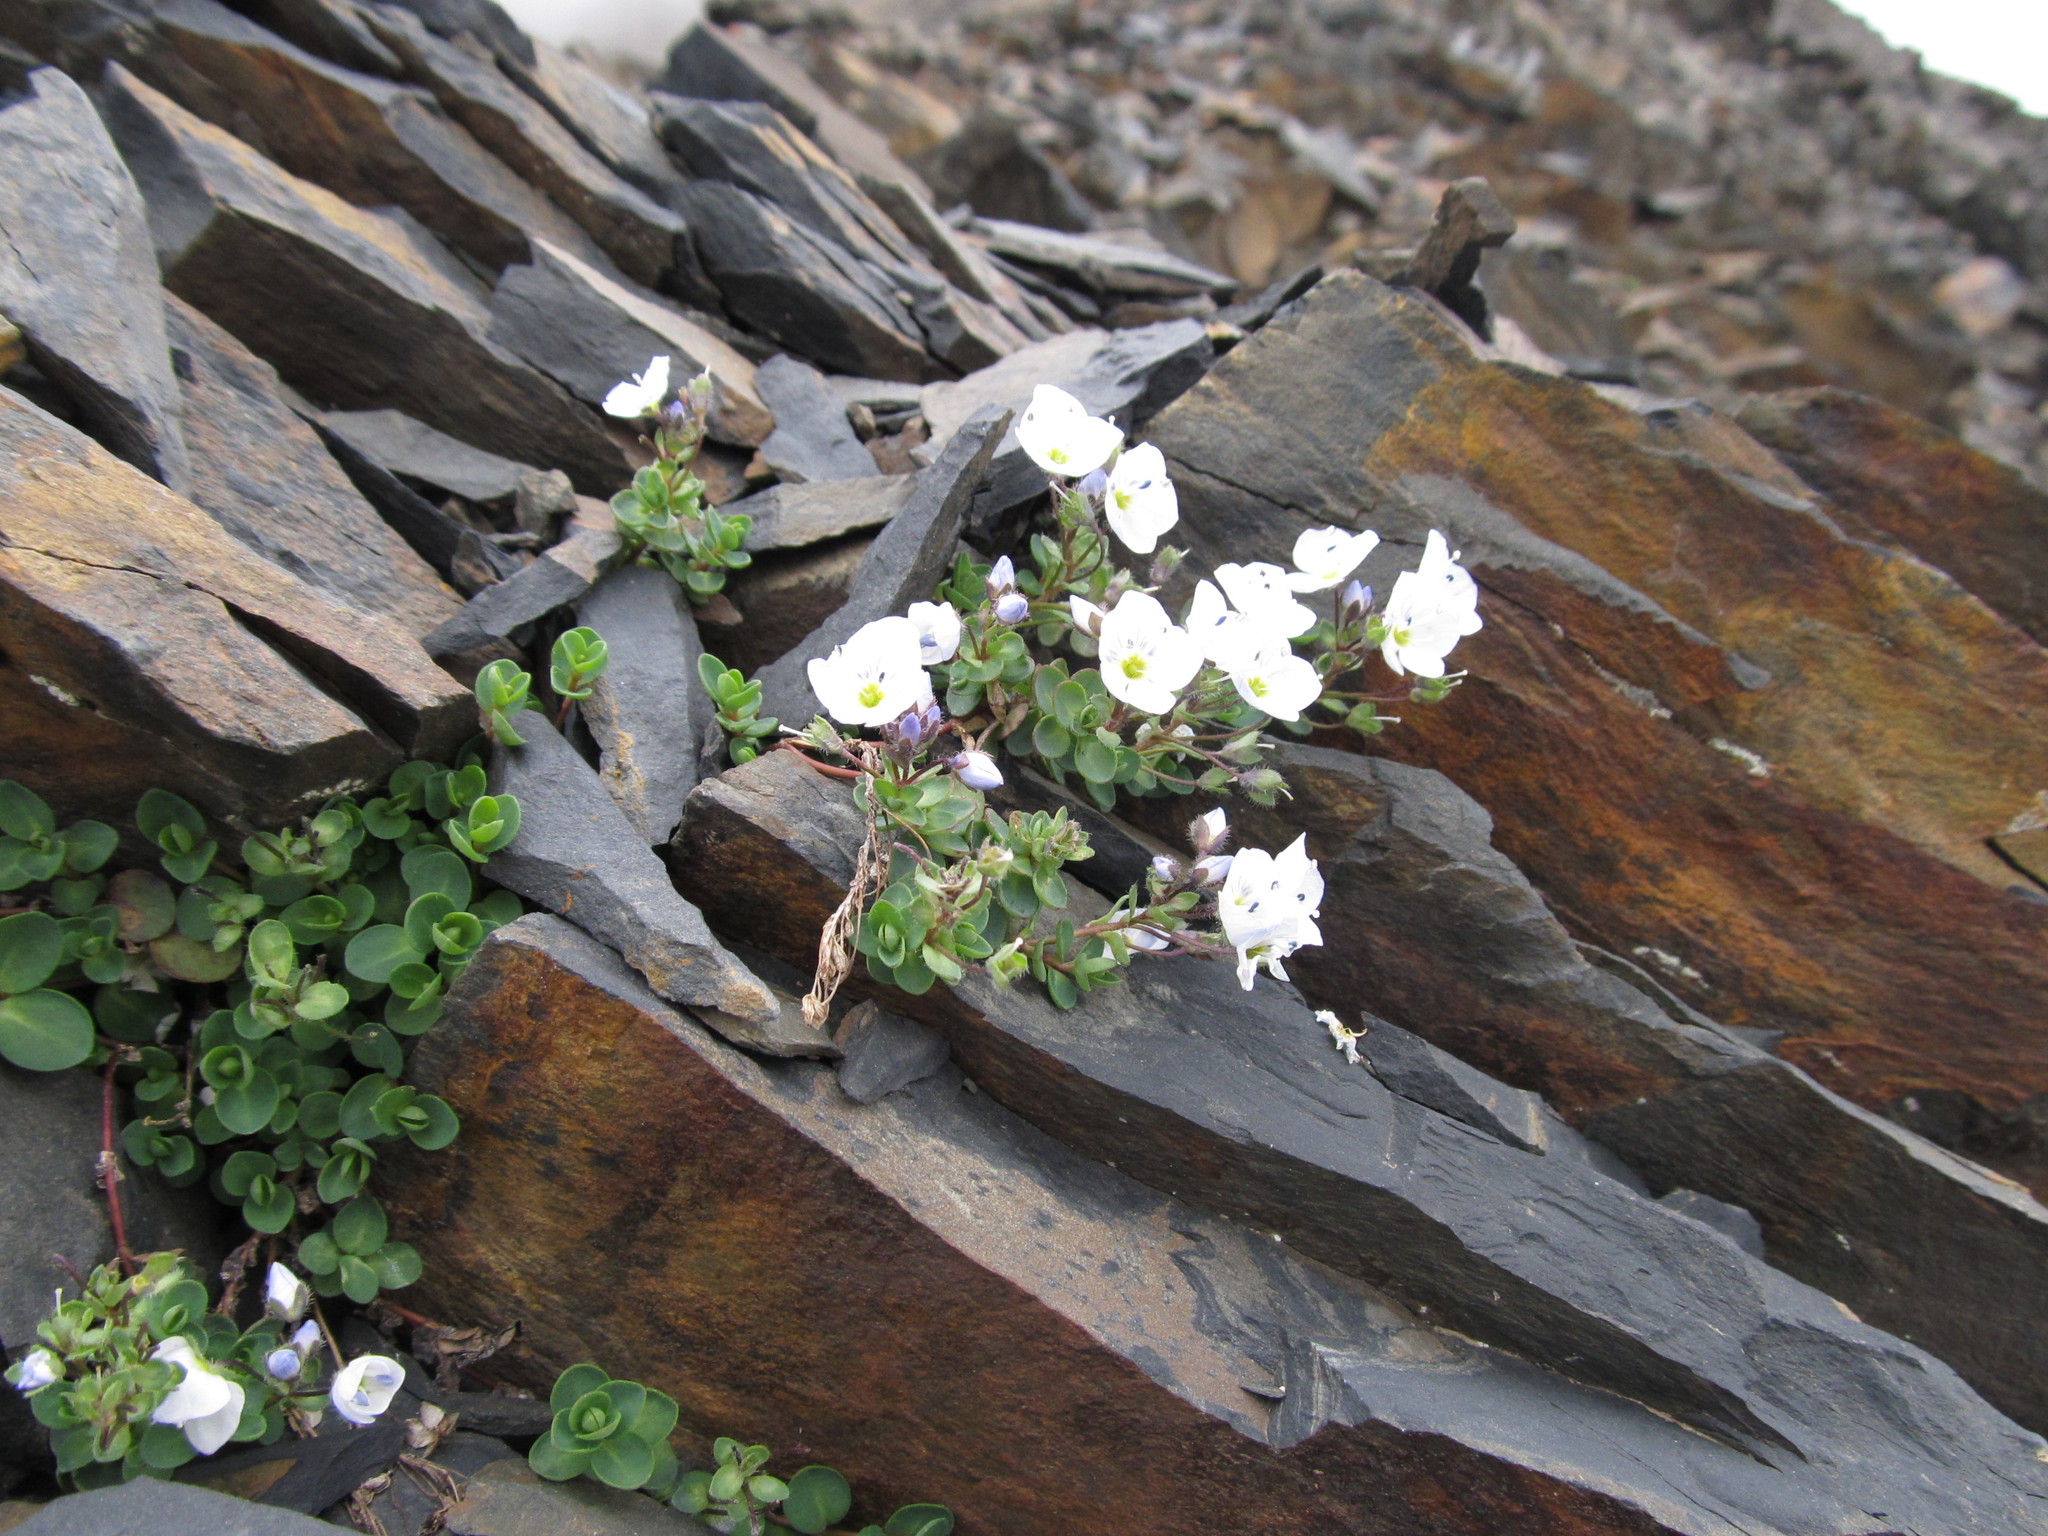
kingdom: Plantae
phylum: Tracheophyta
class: Magnoliopsida
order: Lamiales
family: Plantaginaceae
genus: Veronica
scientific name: Veronica telephiifolia
